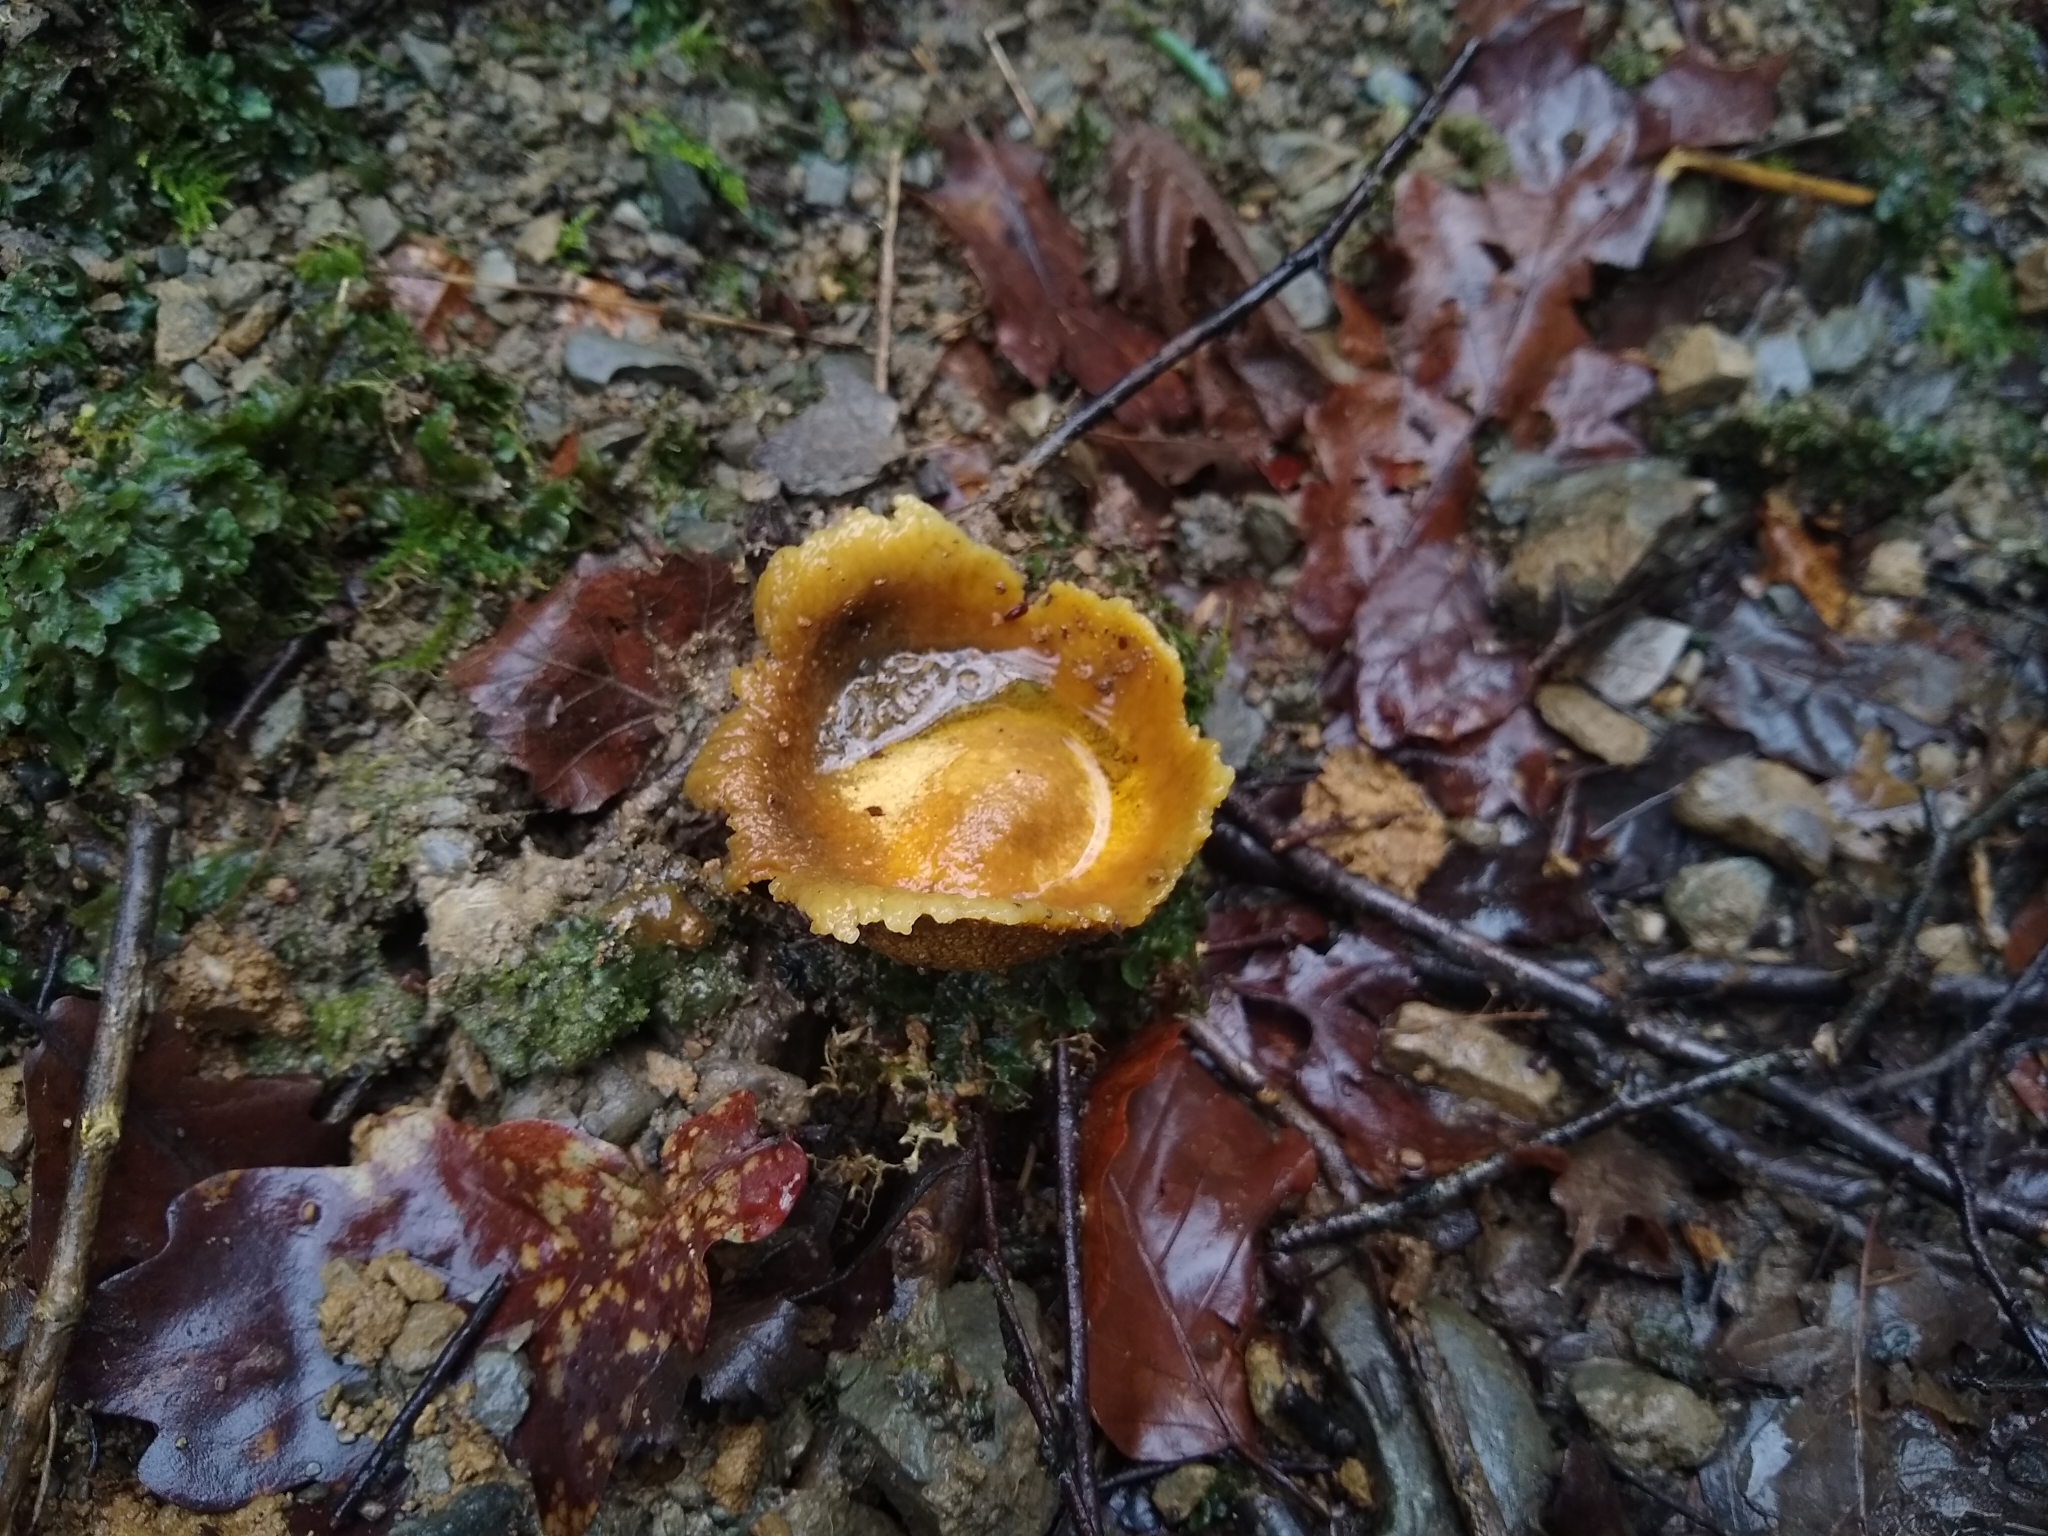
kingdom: Fungi
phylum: Basidiomycota
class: Agaricomycetes
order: Boletales
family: Sclerodermataceae
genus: Scleroderma
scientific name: Scleroderma citrinum
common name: Common earthball
